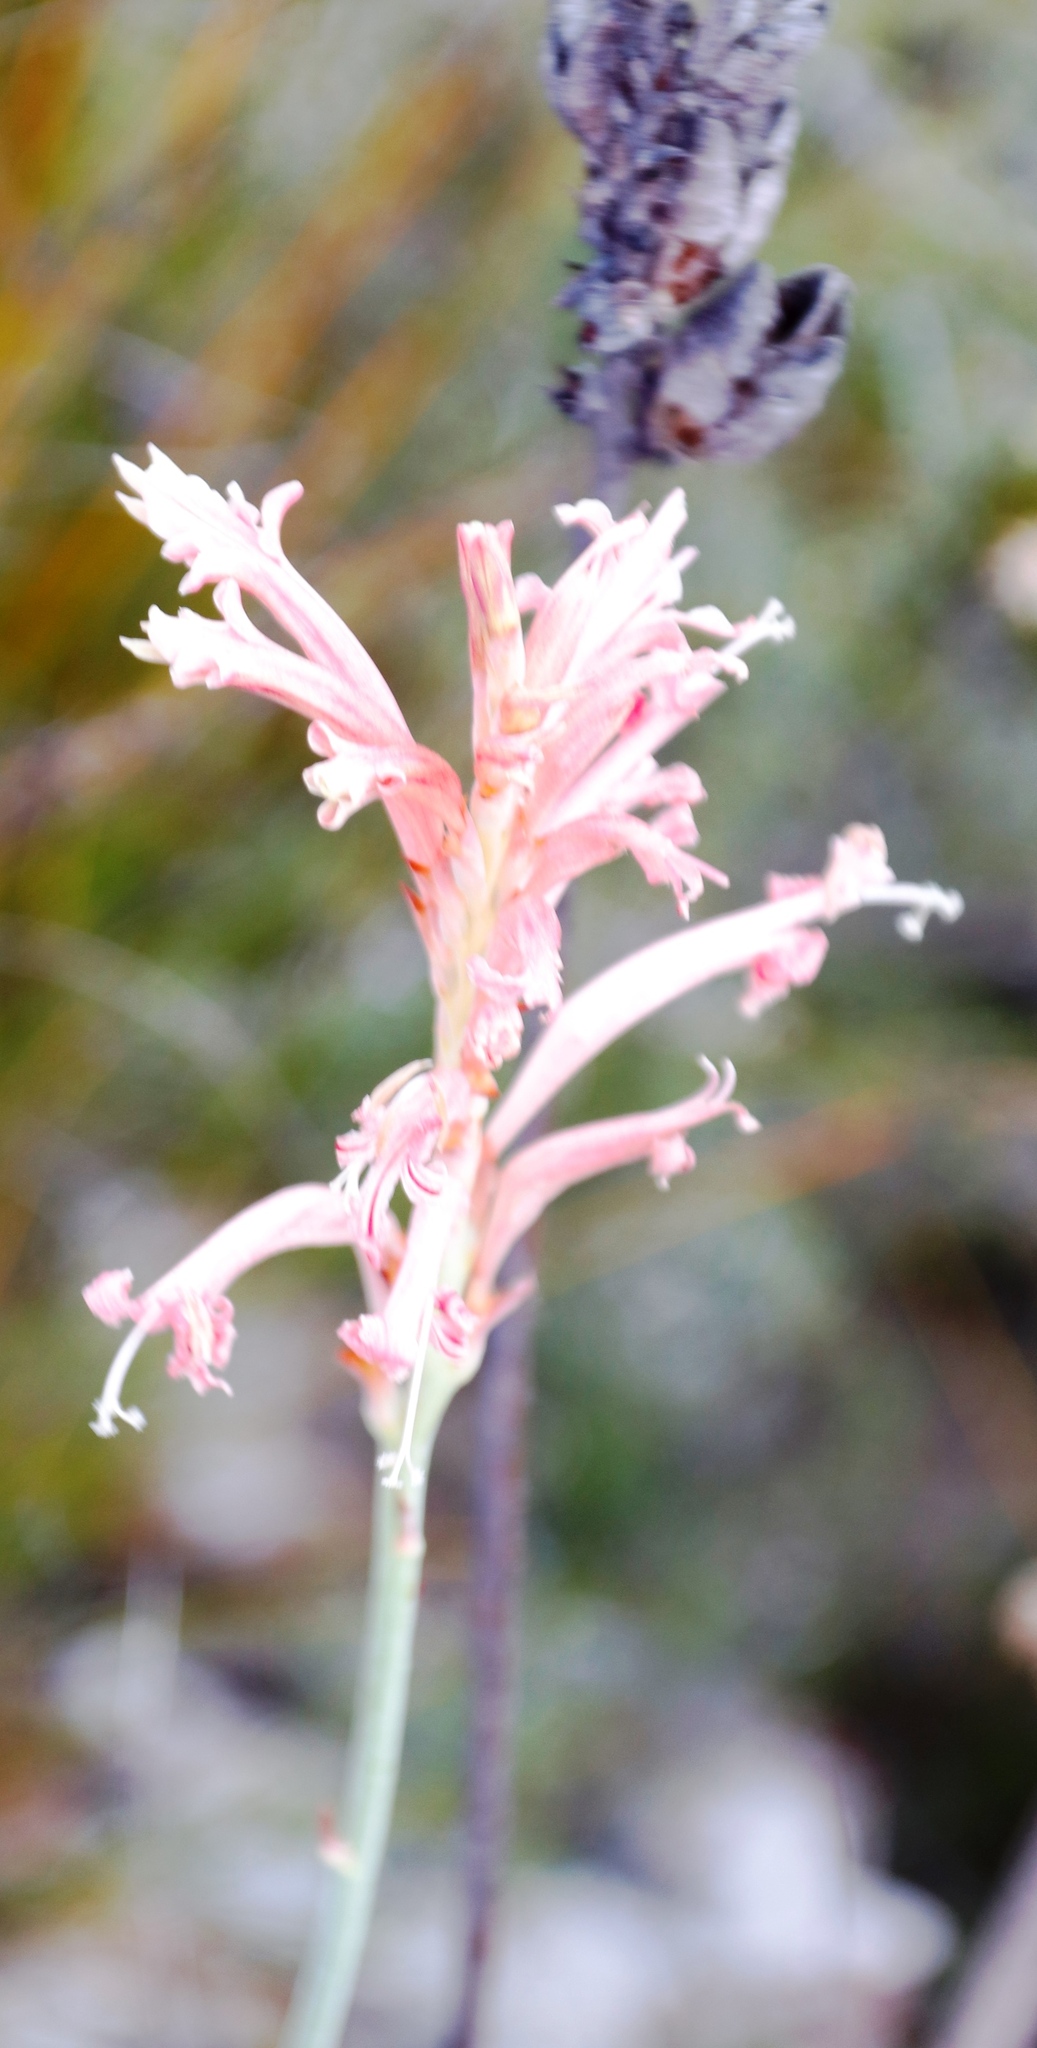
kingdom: Plantae
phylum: Tracheophyta
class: Liliopsida
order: Asparagales
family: Iridaceae
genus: Tritoniopsis
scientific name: Tritoniopsis antholyza
